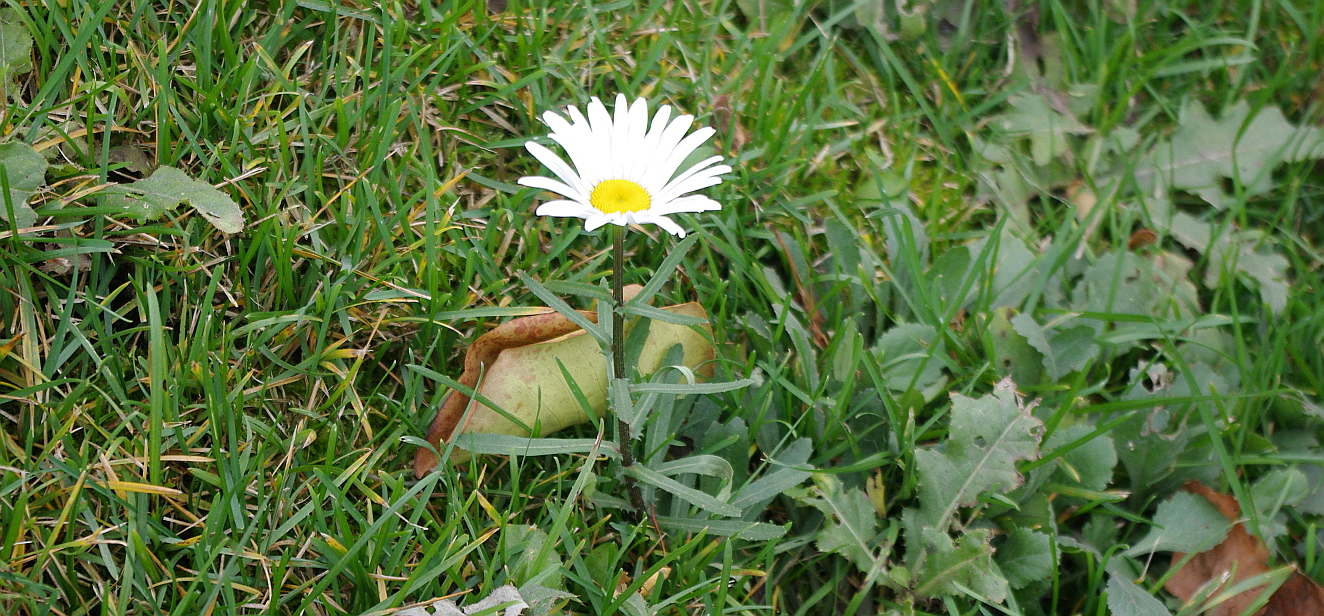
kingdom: Plantae
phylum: Tracheophyta
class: Magnoliopsida
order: Asterales
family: Asteraceae
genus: Leucanthemum
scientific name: Leucanthemum vulgare
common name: Oxeye daisy
